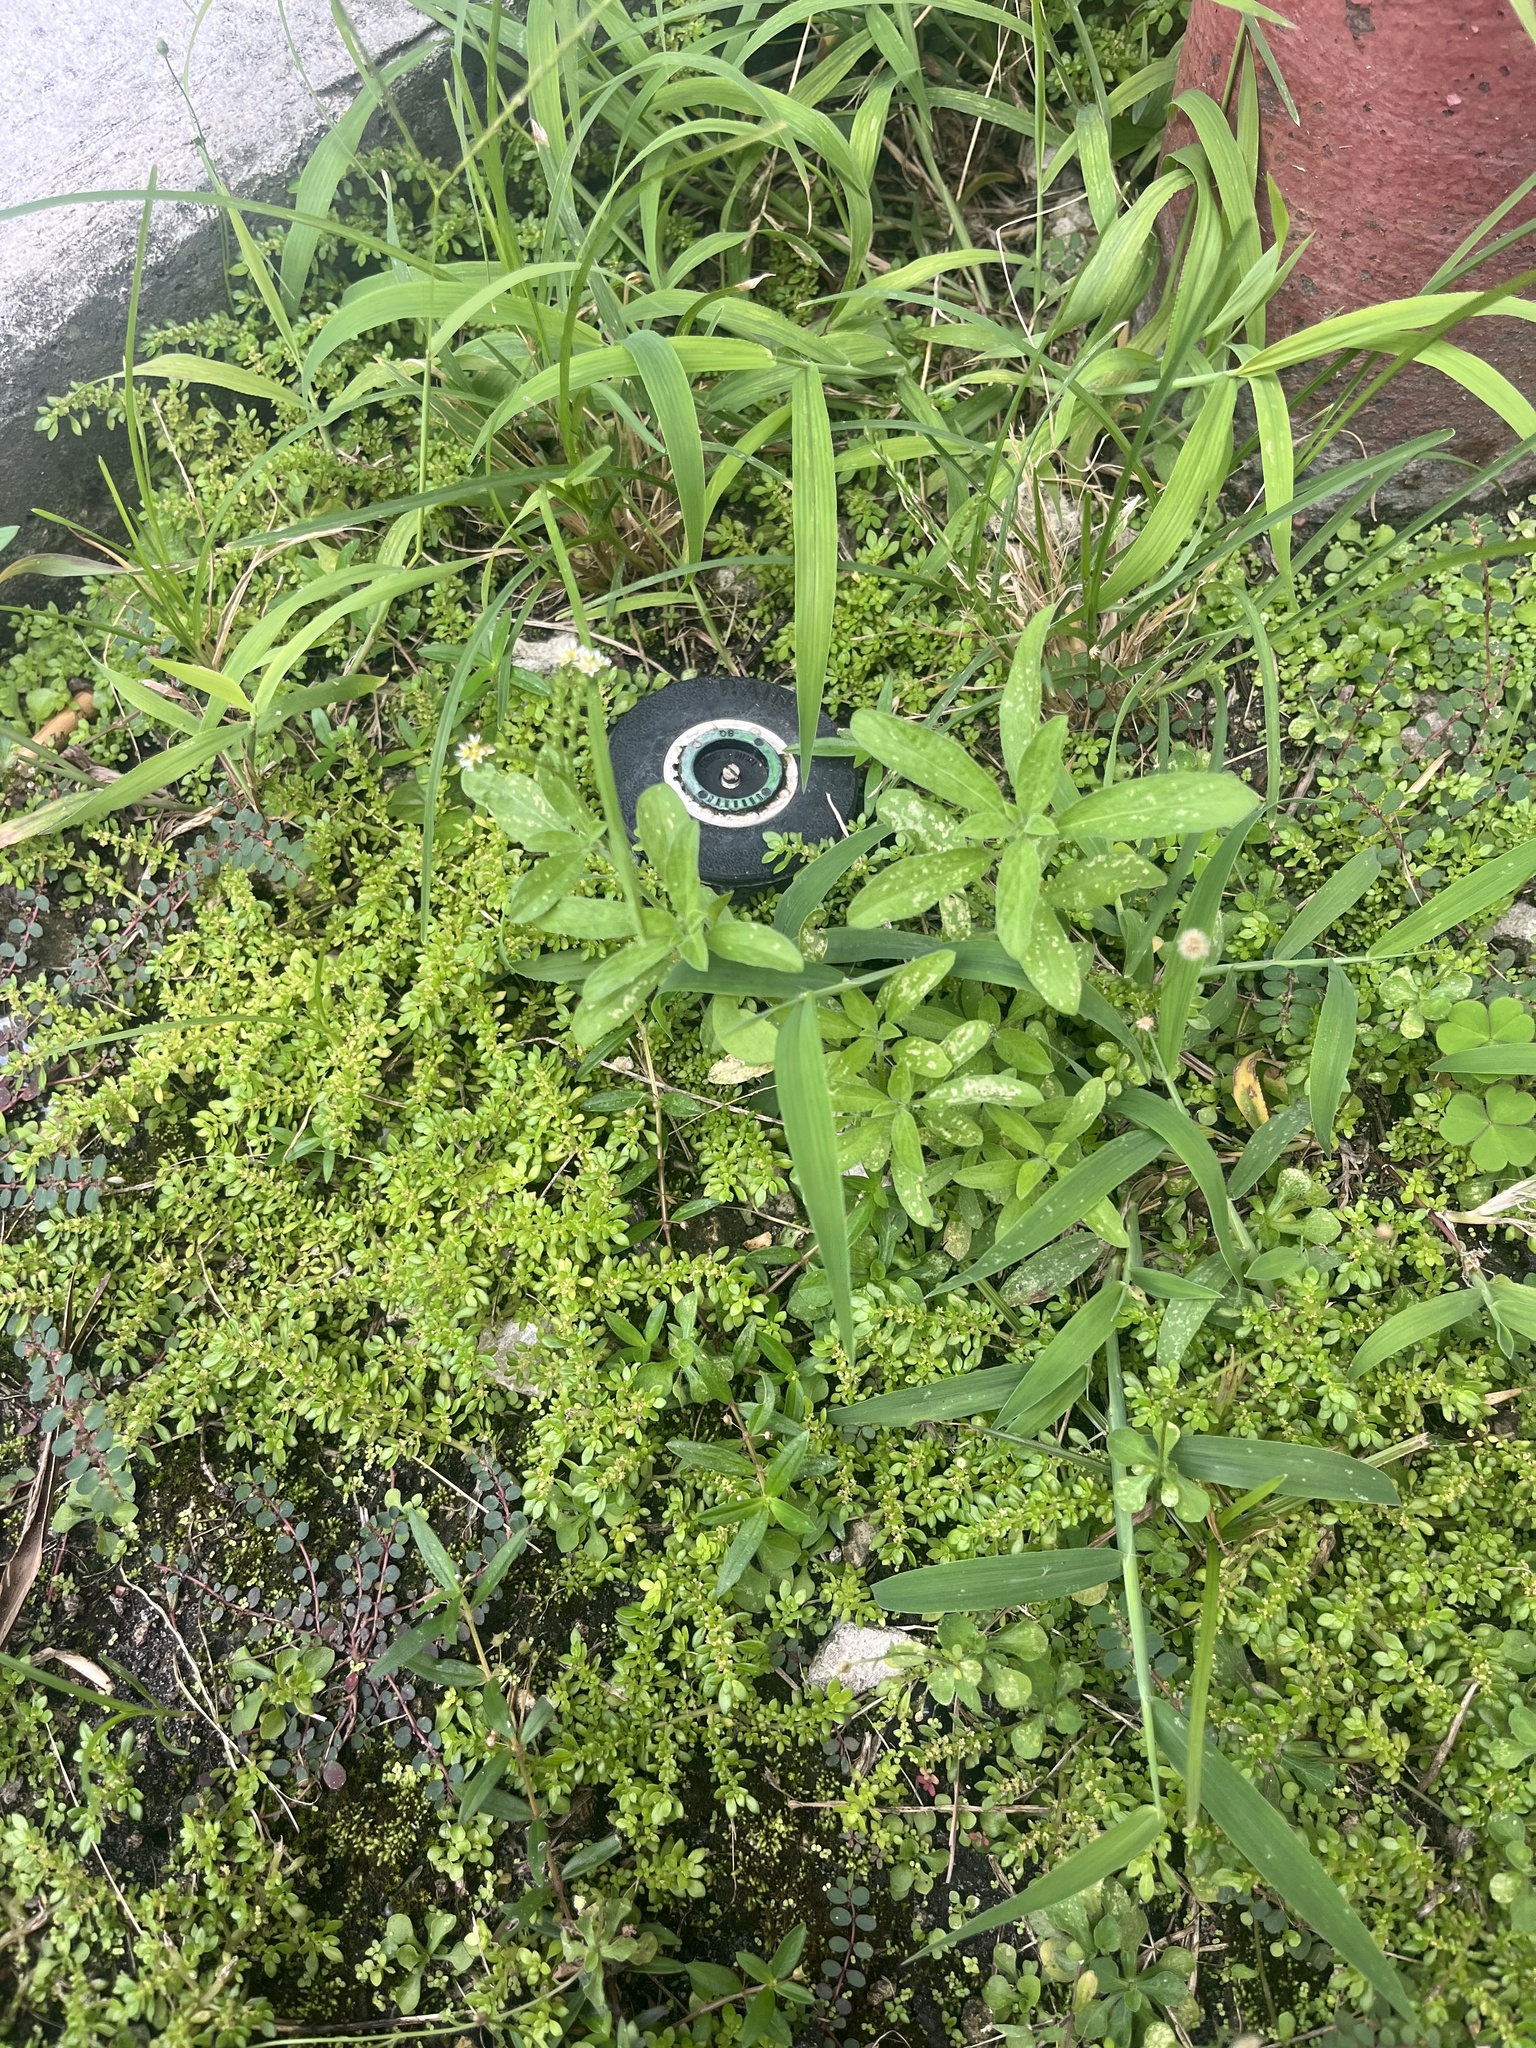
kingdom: Plantae
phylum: Tracheophyta
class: Magnoliopsida
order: Boraginales
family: Heliotropiaceae
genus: Euploca
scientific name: Euploca procumbens
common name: Fourspike heliotrope
